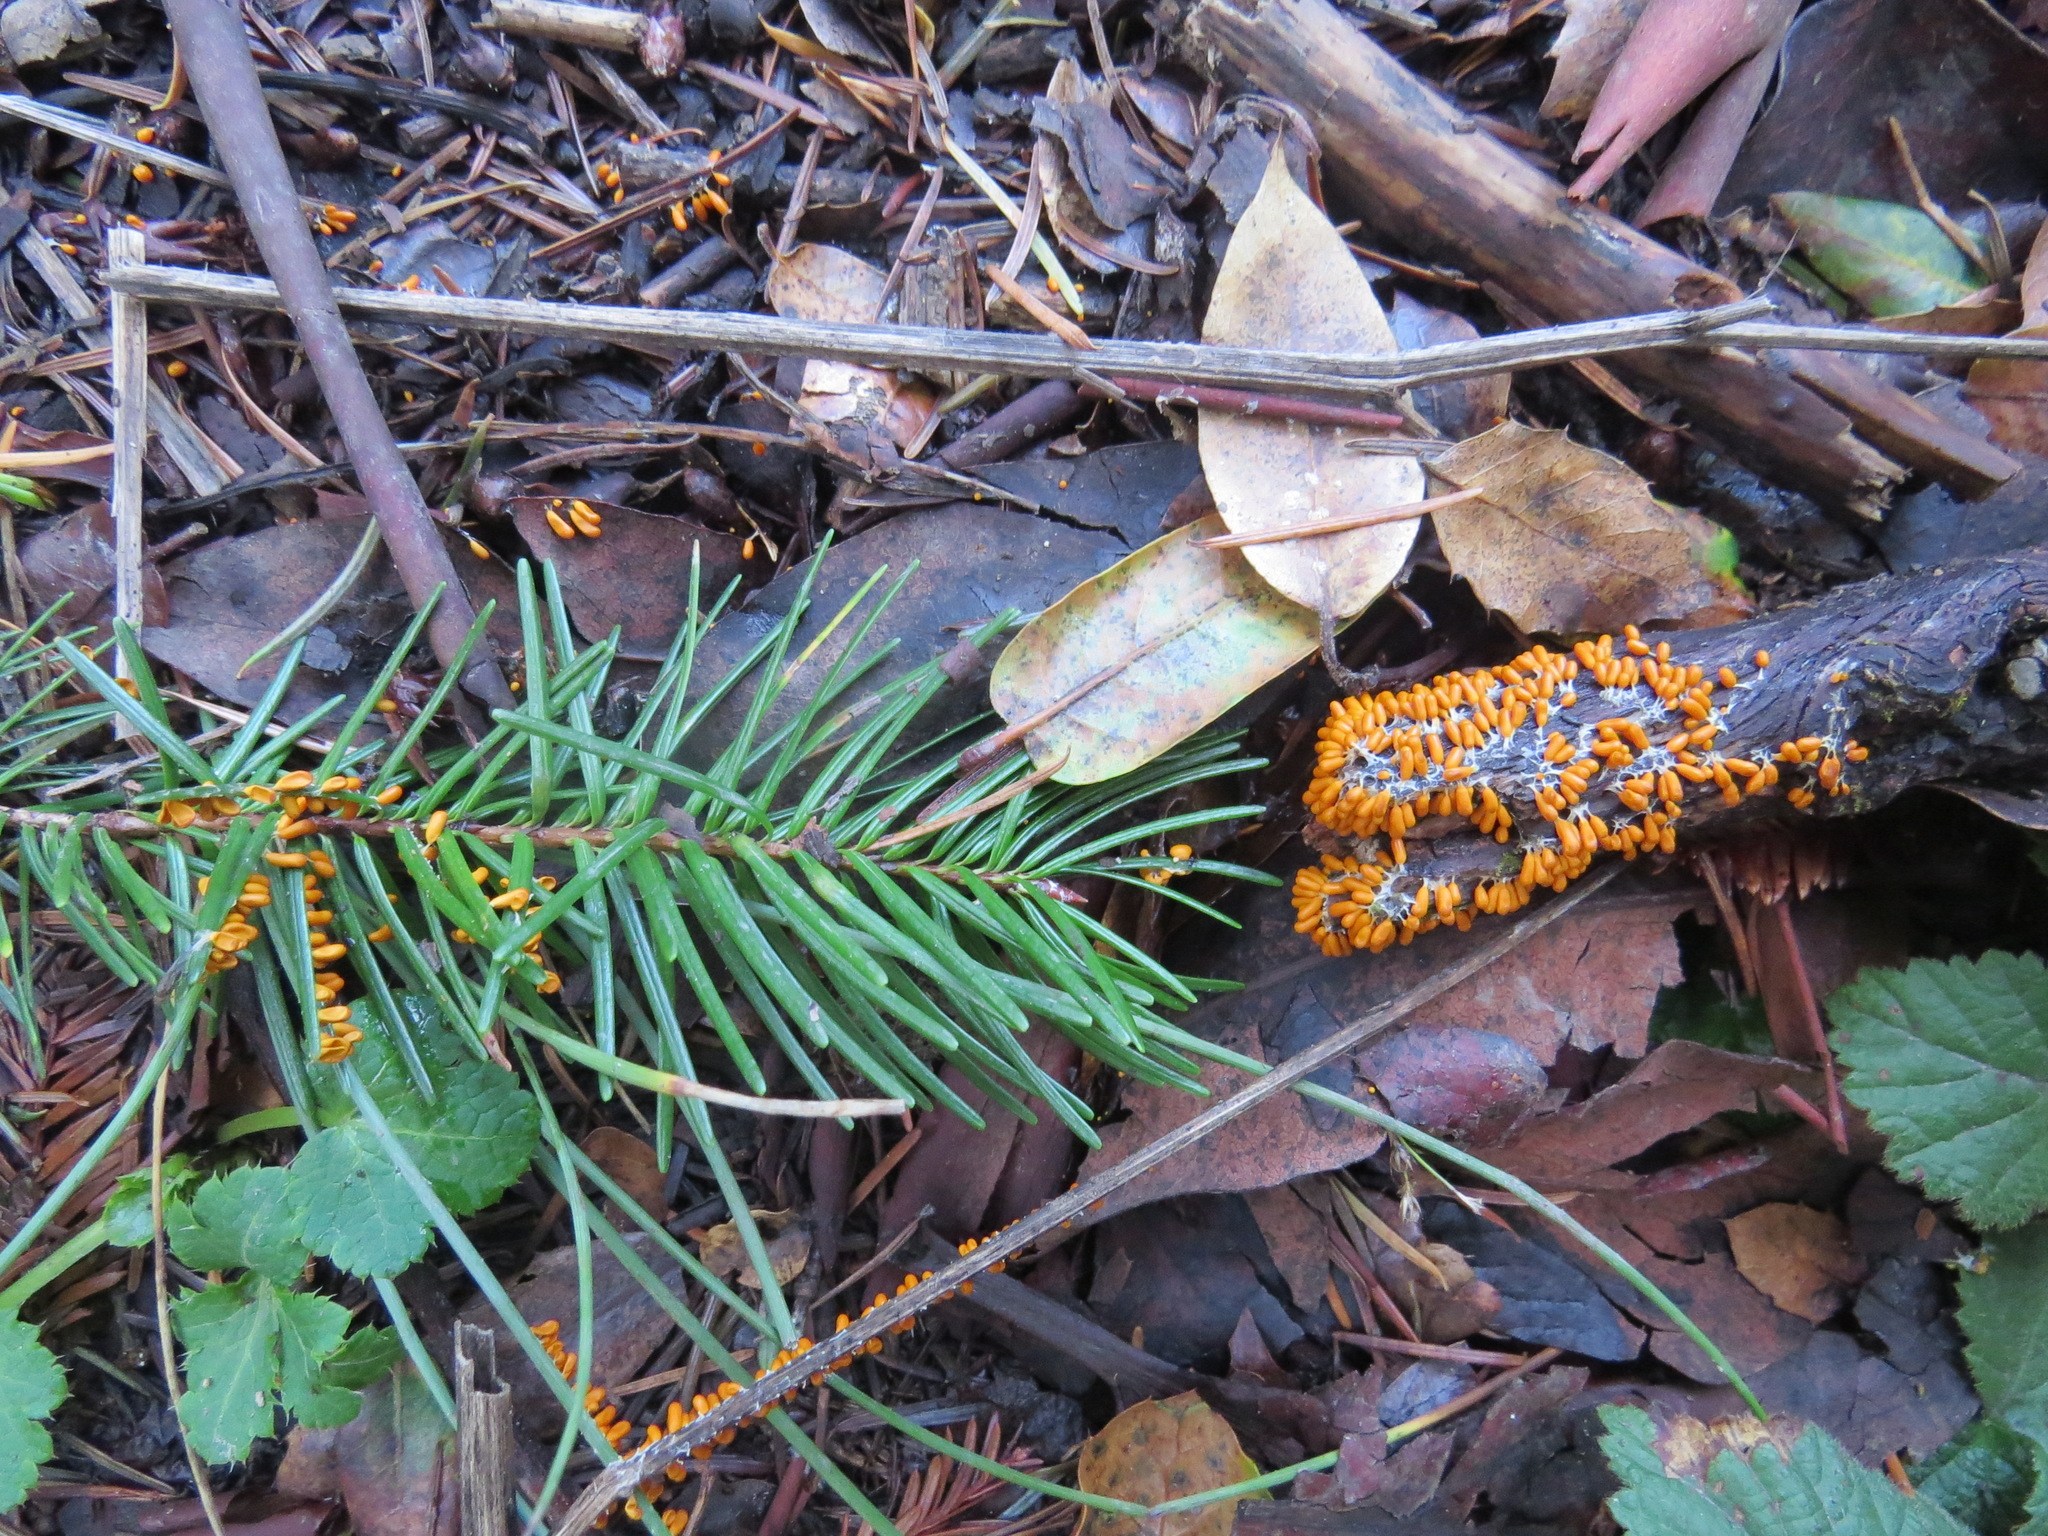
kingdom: Protozoa
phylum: Mycetozoa
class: Myxomycetes
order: Physarales
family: Physaraceae
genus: Leocarpus
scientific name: Leocarpus fragilis
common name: Insect-egg slime
